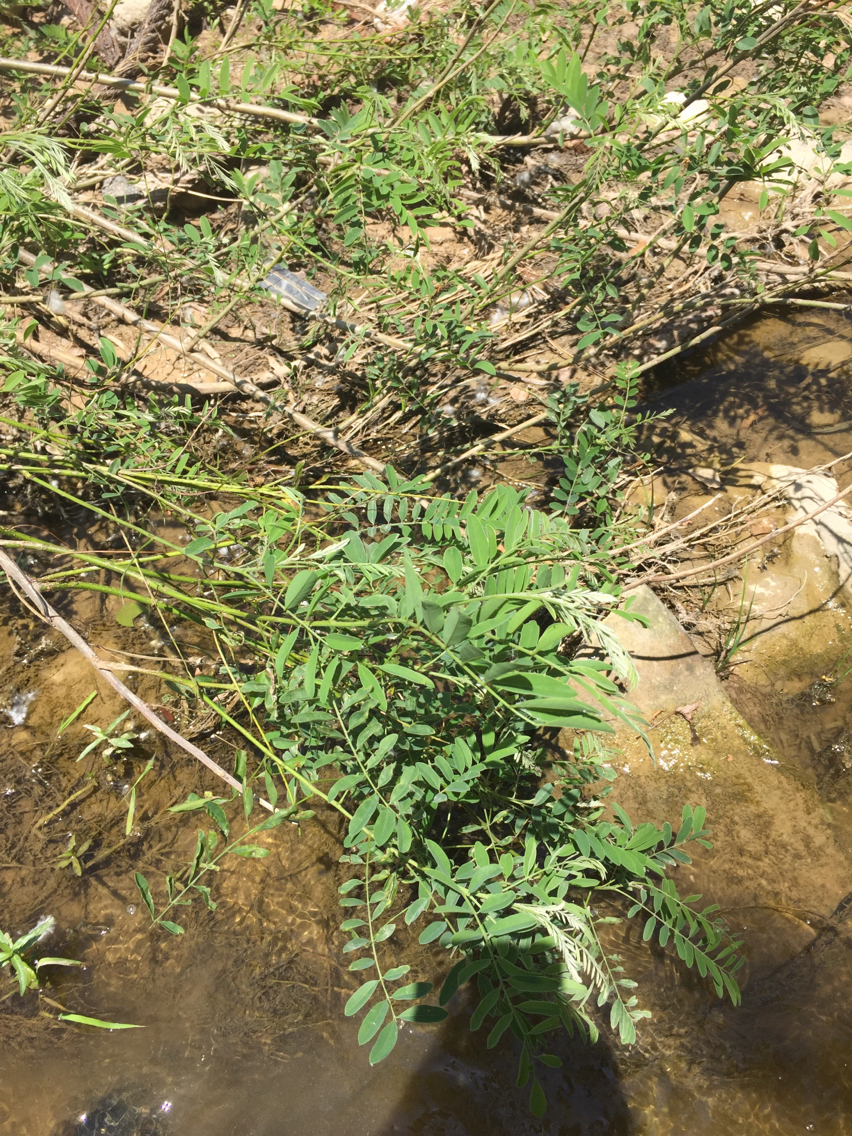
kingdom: Plantae
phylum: Tracheophyta
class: Magnoliopsida
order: Fabales
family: Fabaceae
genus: Amorpha
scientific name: Amorpha fruticosa
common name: False indigo
